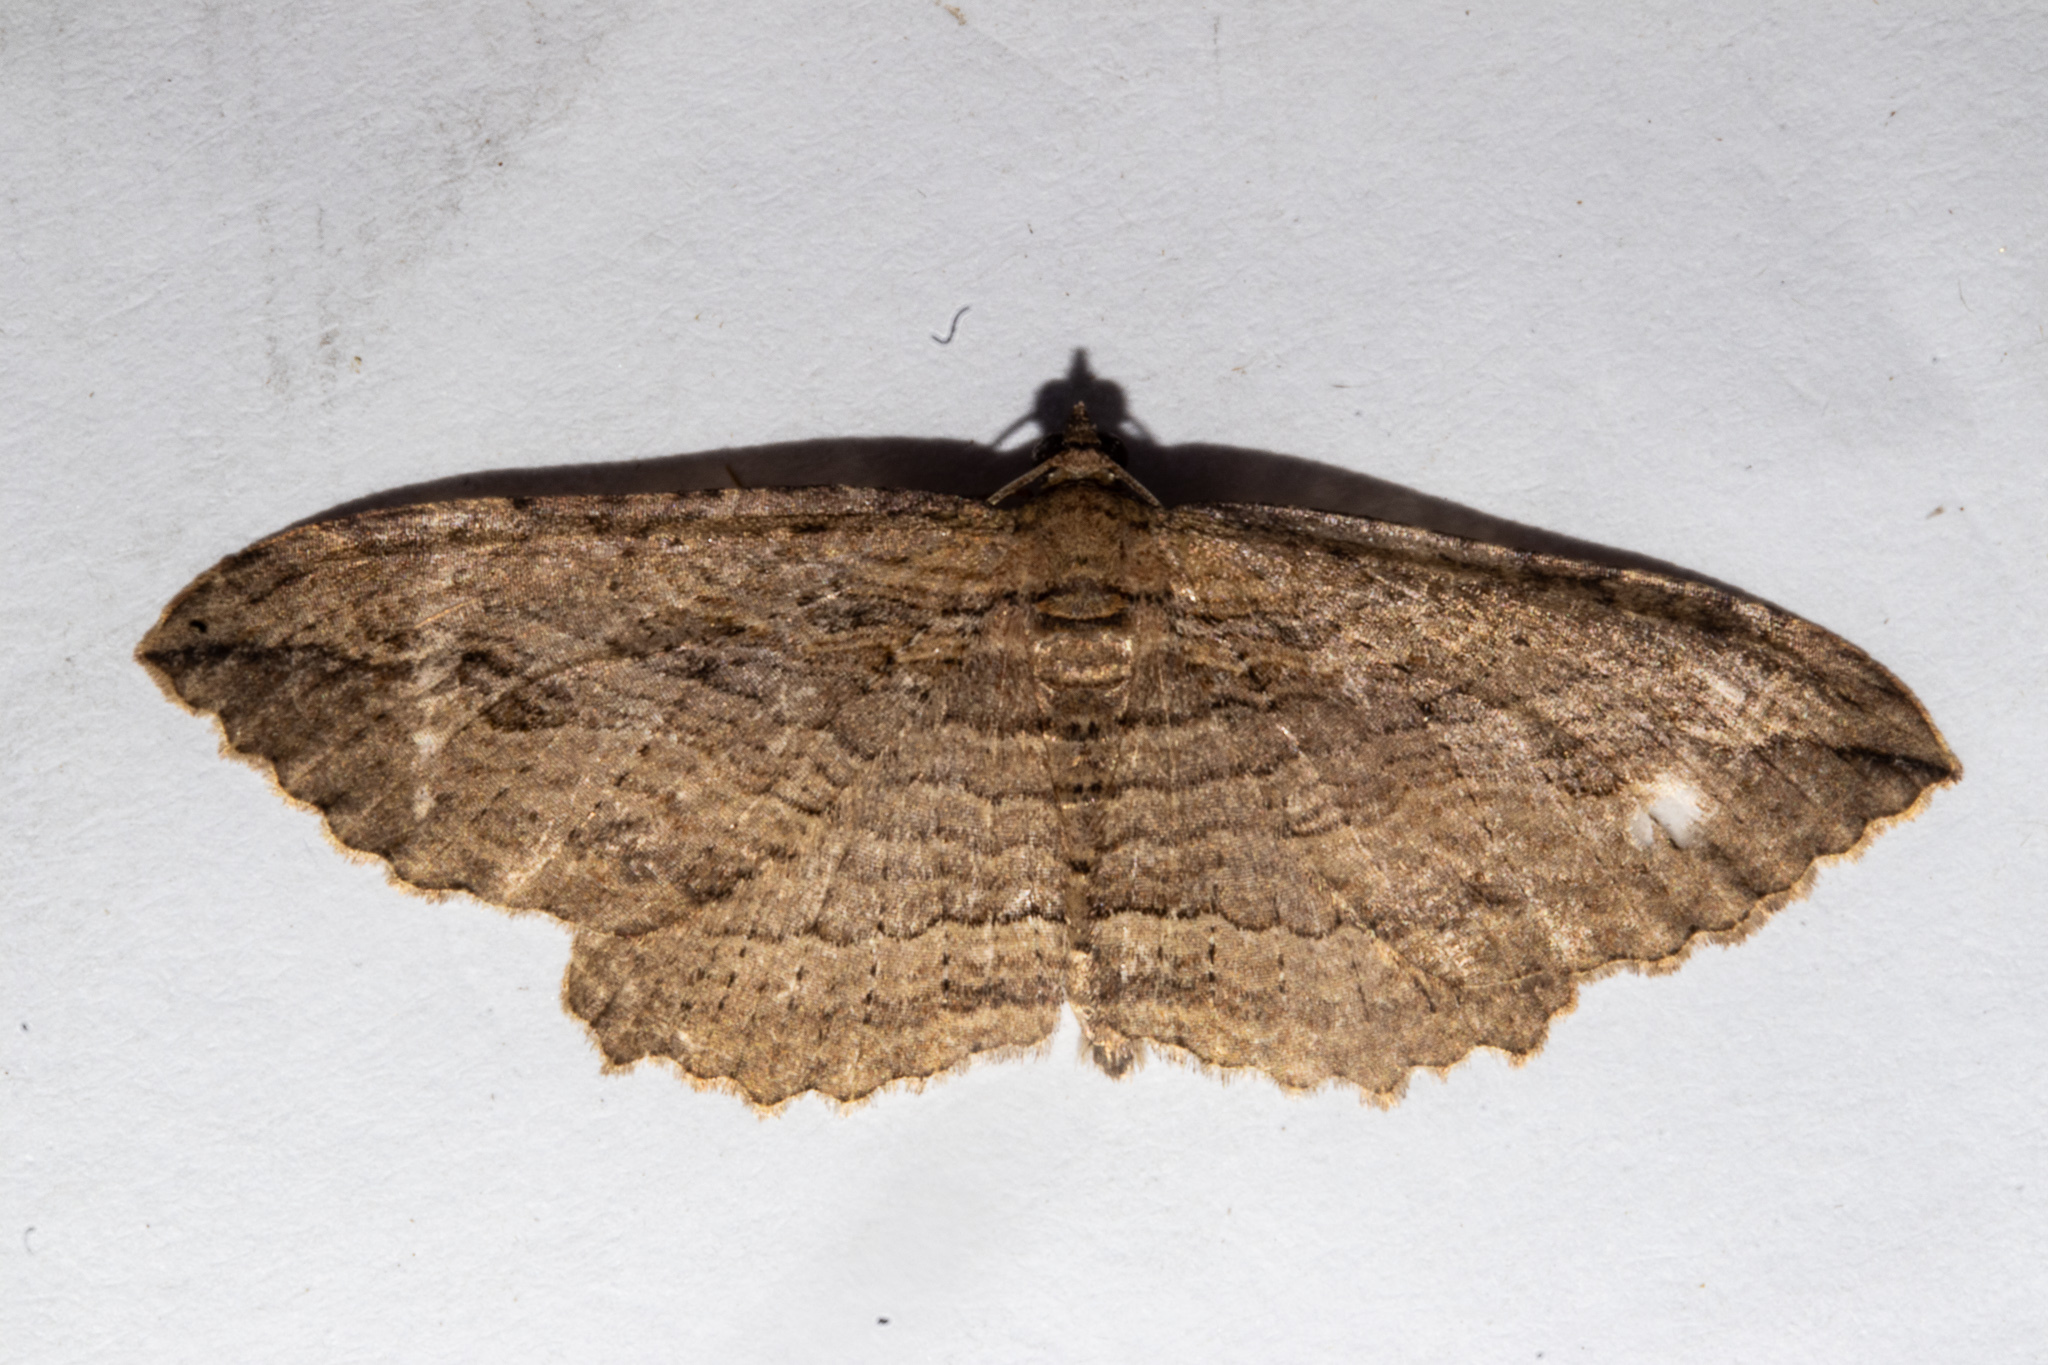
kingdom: Animalia
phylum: Arthropoda
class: Insecta
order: Lepidoptera
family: Geometridae
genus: Austrocidaria
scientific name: Austrocidaria gobiata
